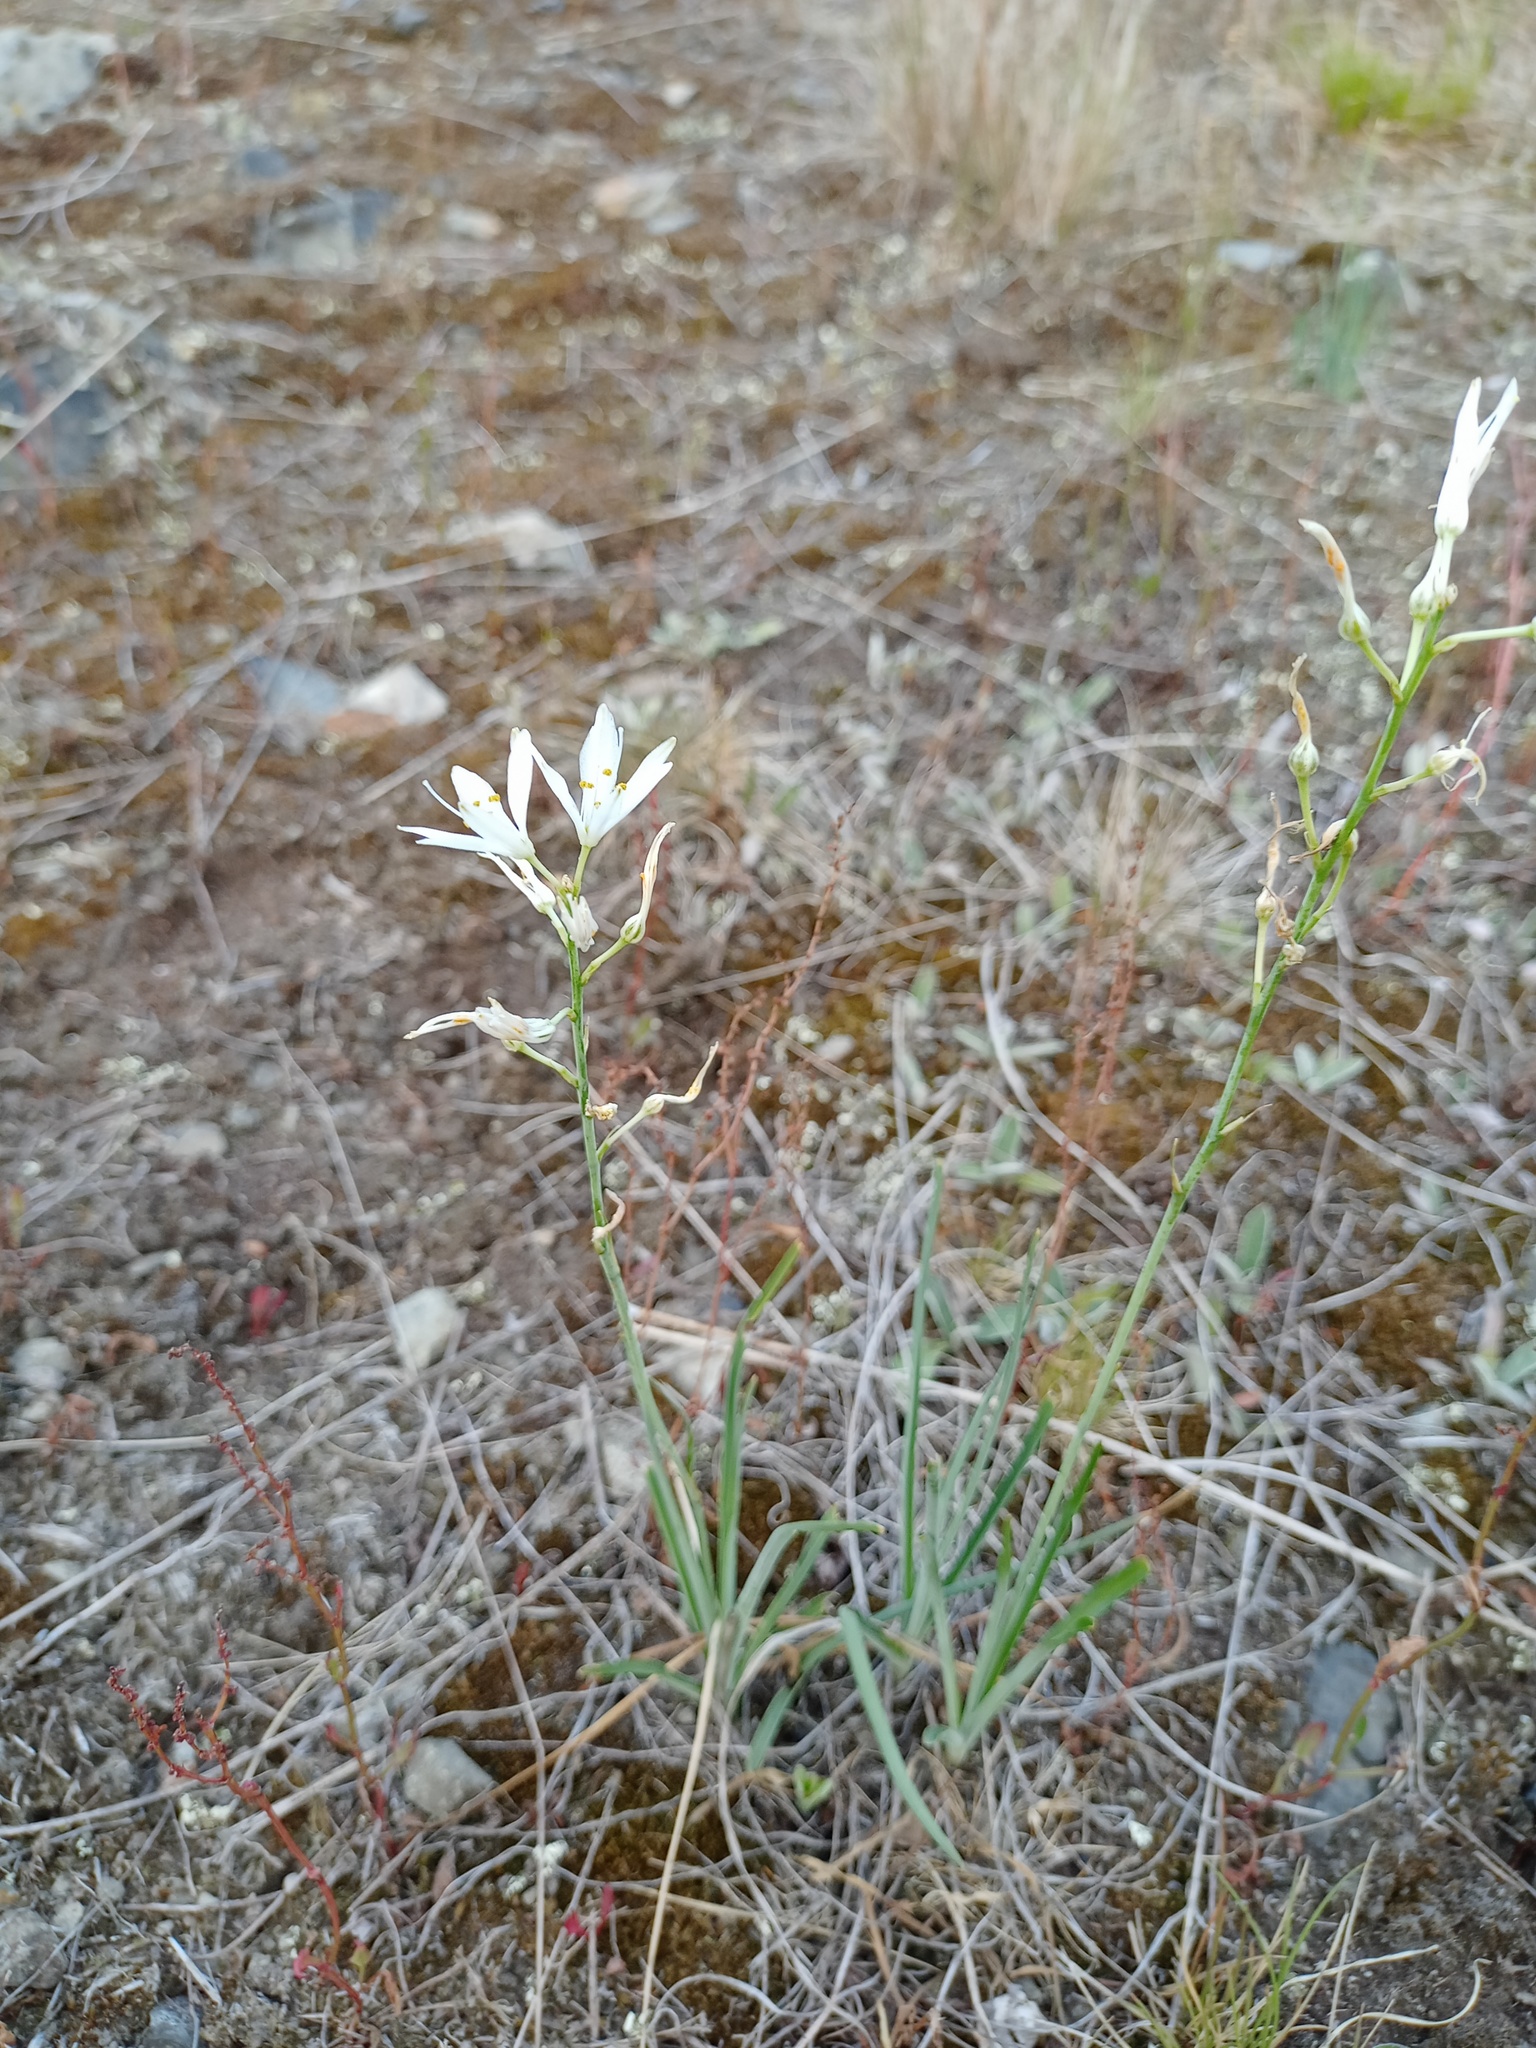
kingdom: Plantae
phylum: Tracheophyta
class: Liliopsida
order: Asparagales
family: Asparagaceae
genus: Anthericum
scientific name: Anthericum liliago
